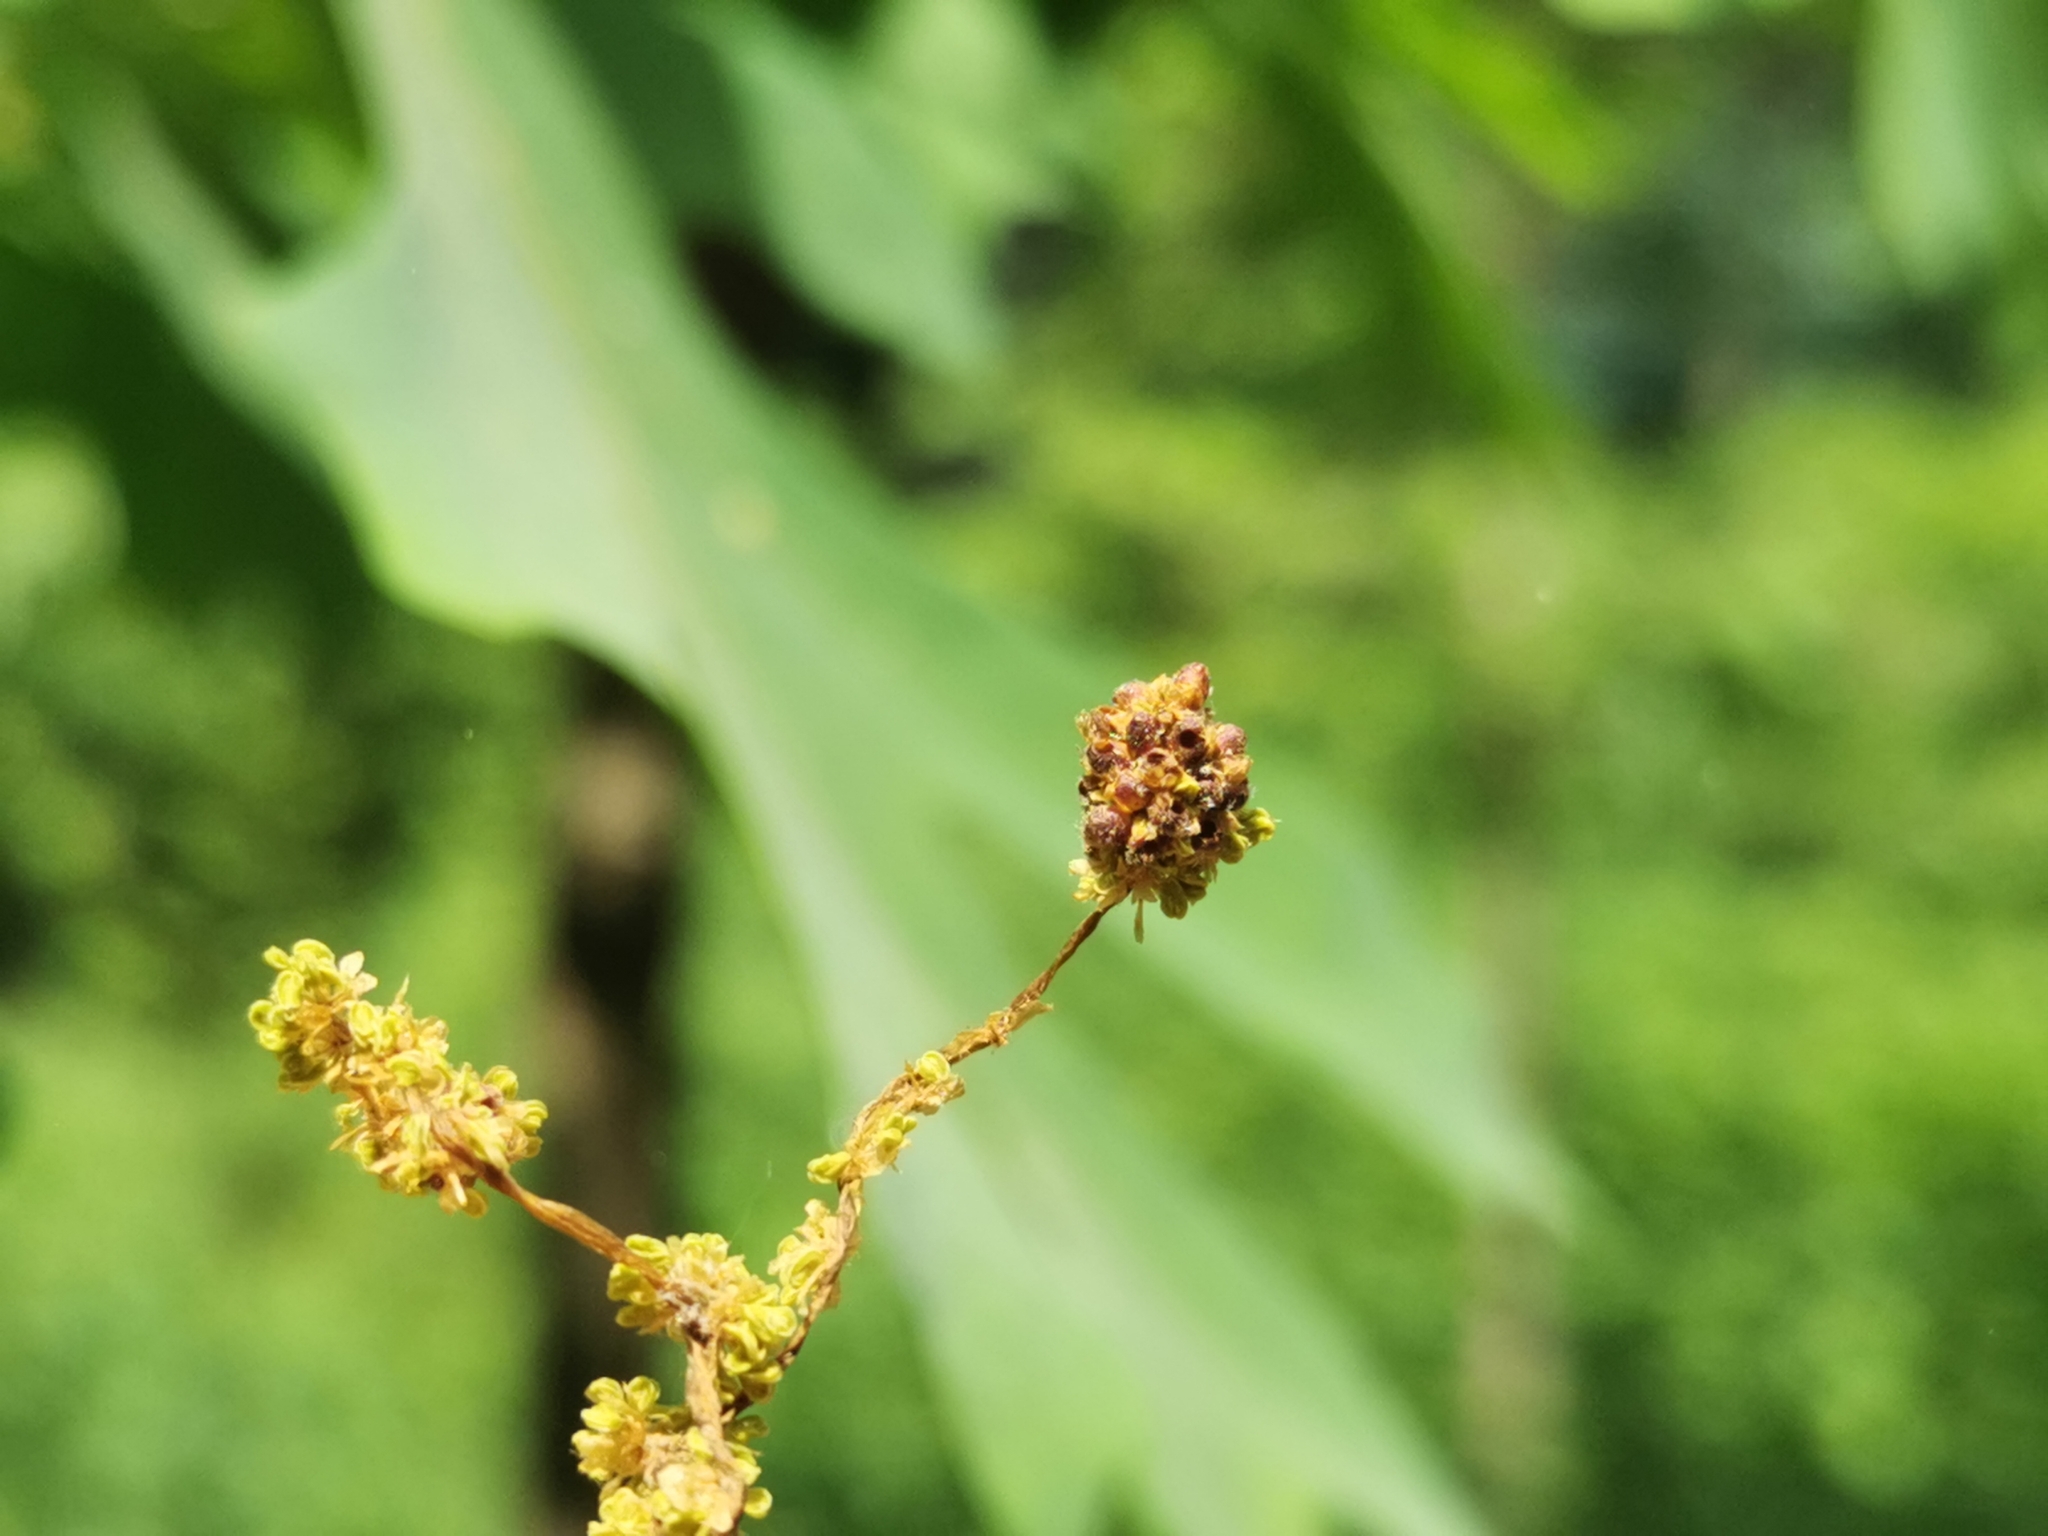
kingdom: Animalia
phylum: Arthropoda
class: Insecta
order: Hymenoptera
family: Cynipidae
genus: Callirhytis
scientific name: Callirhytis
